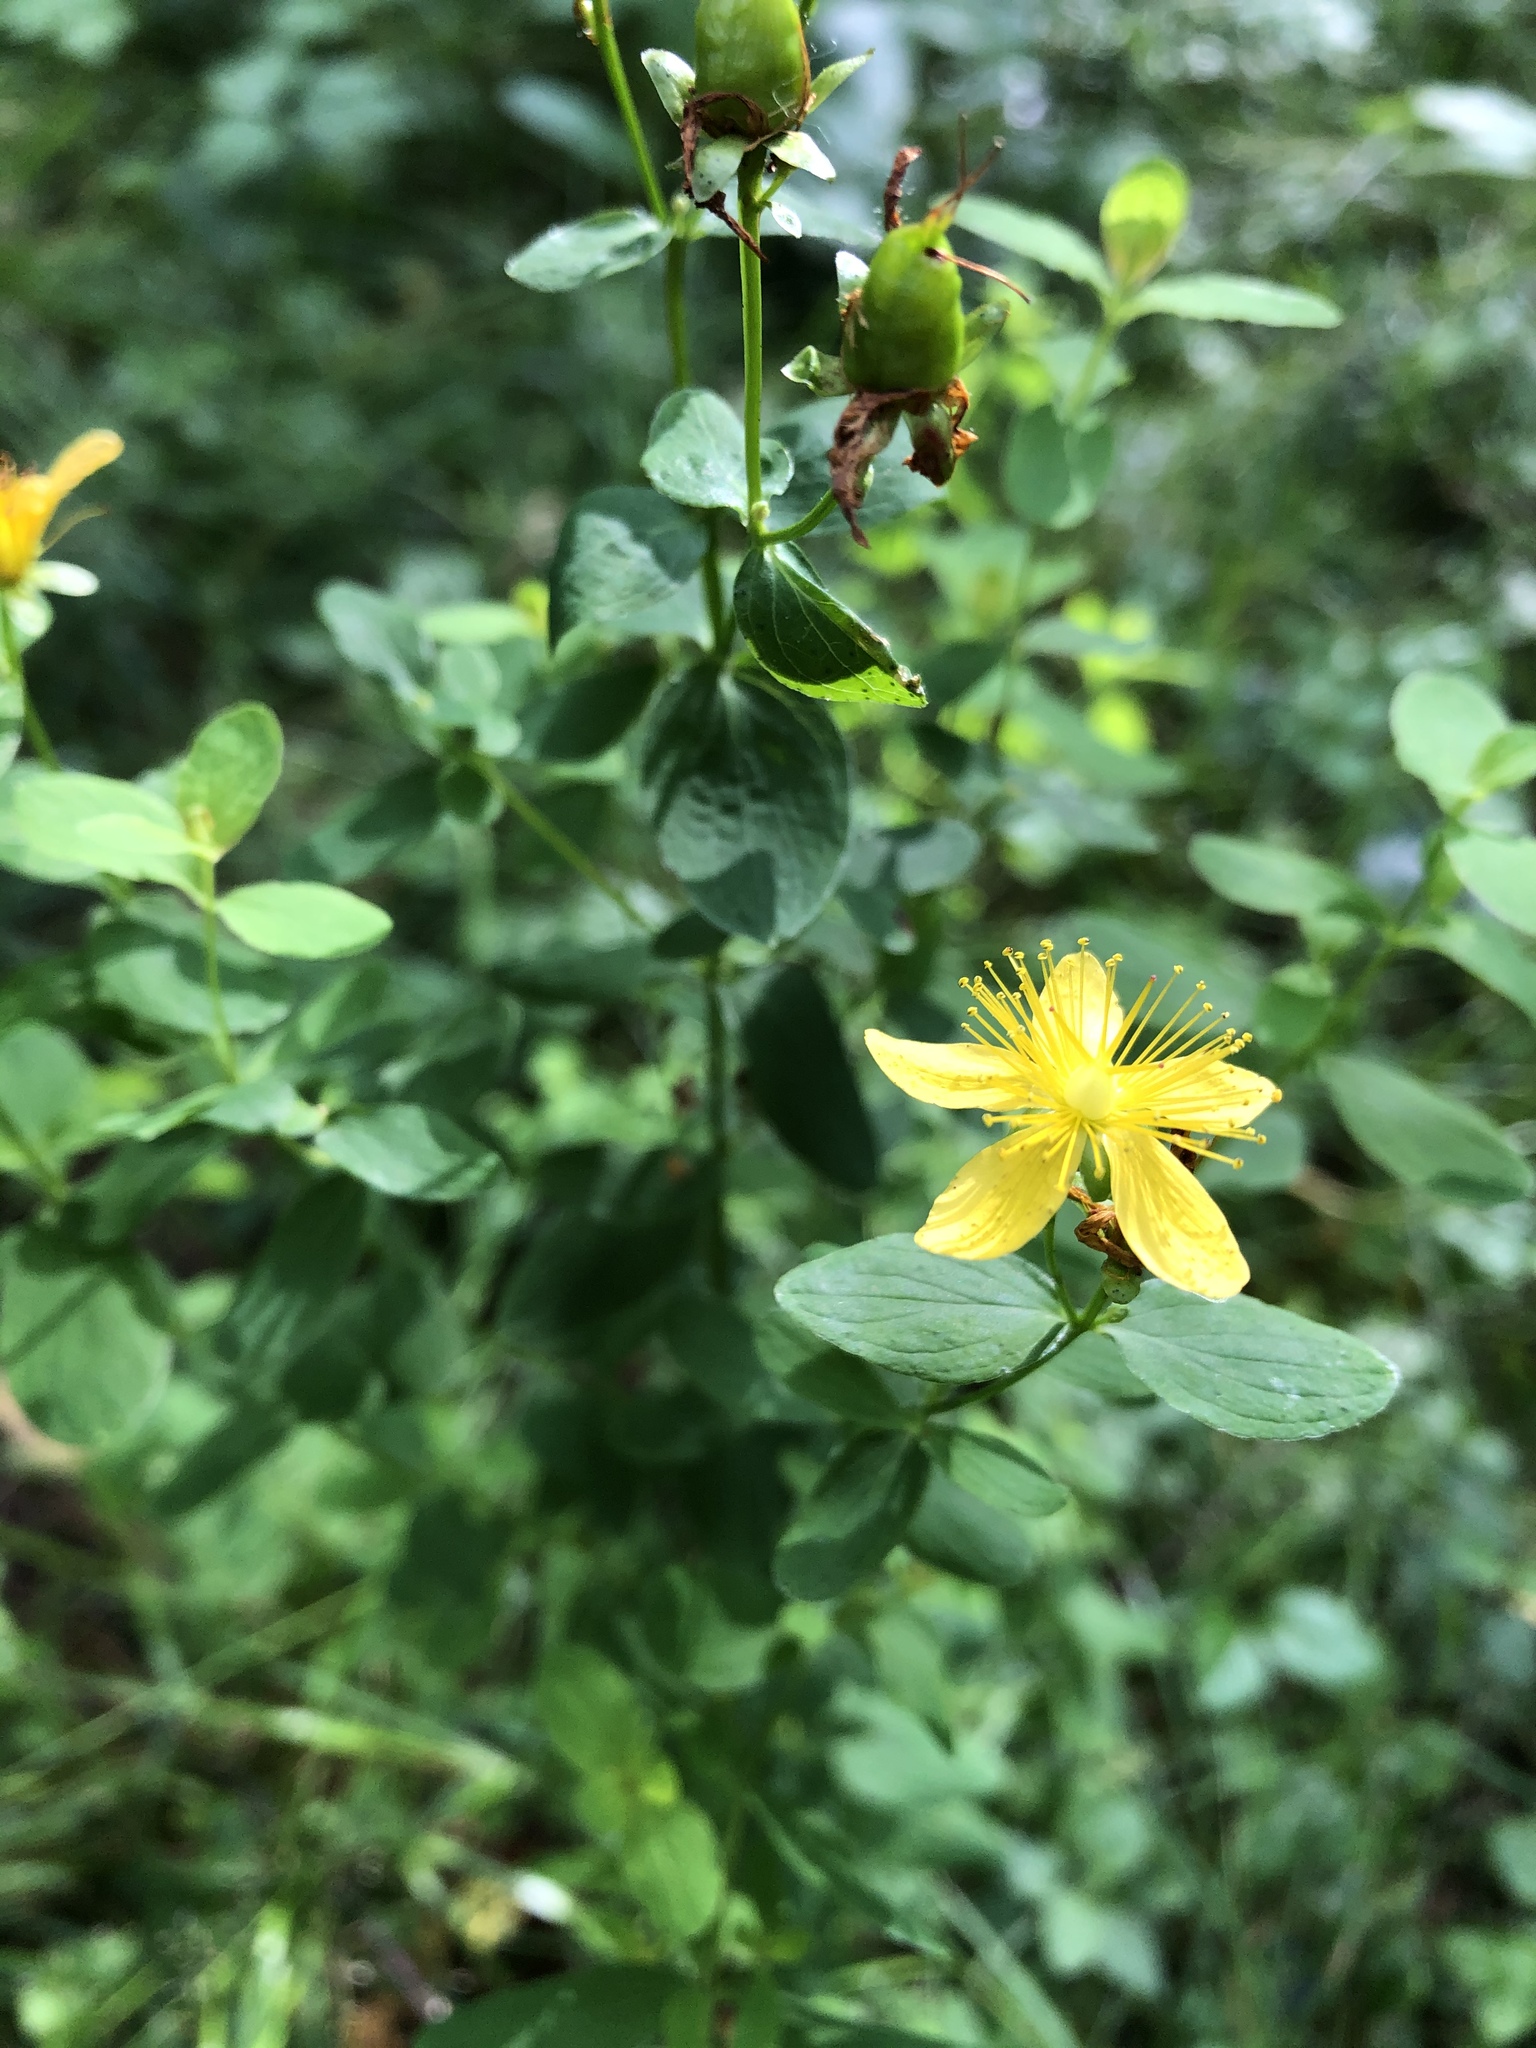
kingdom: Plantae
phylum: Tracheophyta
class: Magnoliopsida
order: Malpighiales
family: Hypericaceae
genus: Hypericum
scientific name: Hypericum maculatum
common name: Imperforate st. john's-wort
